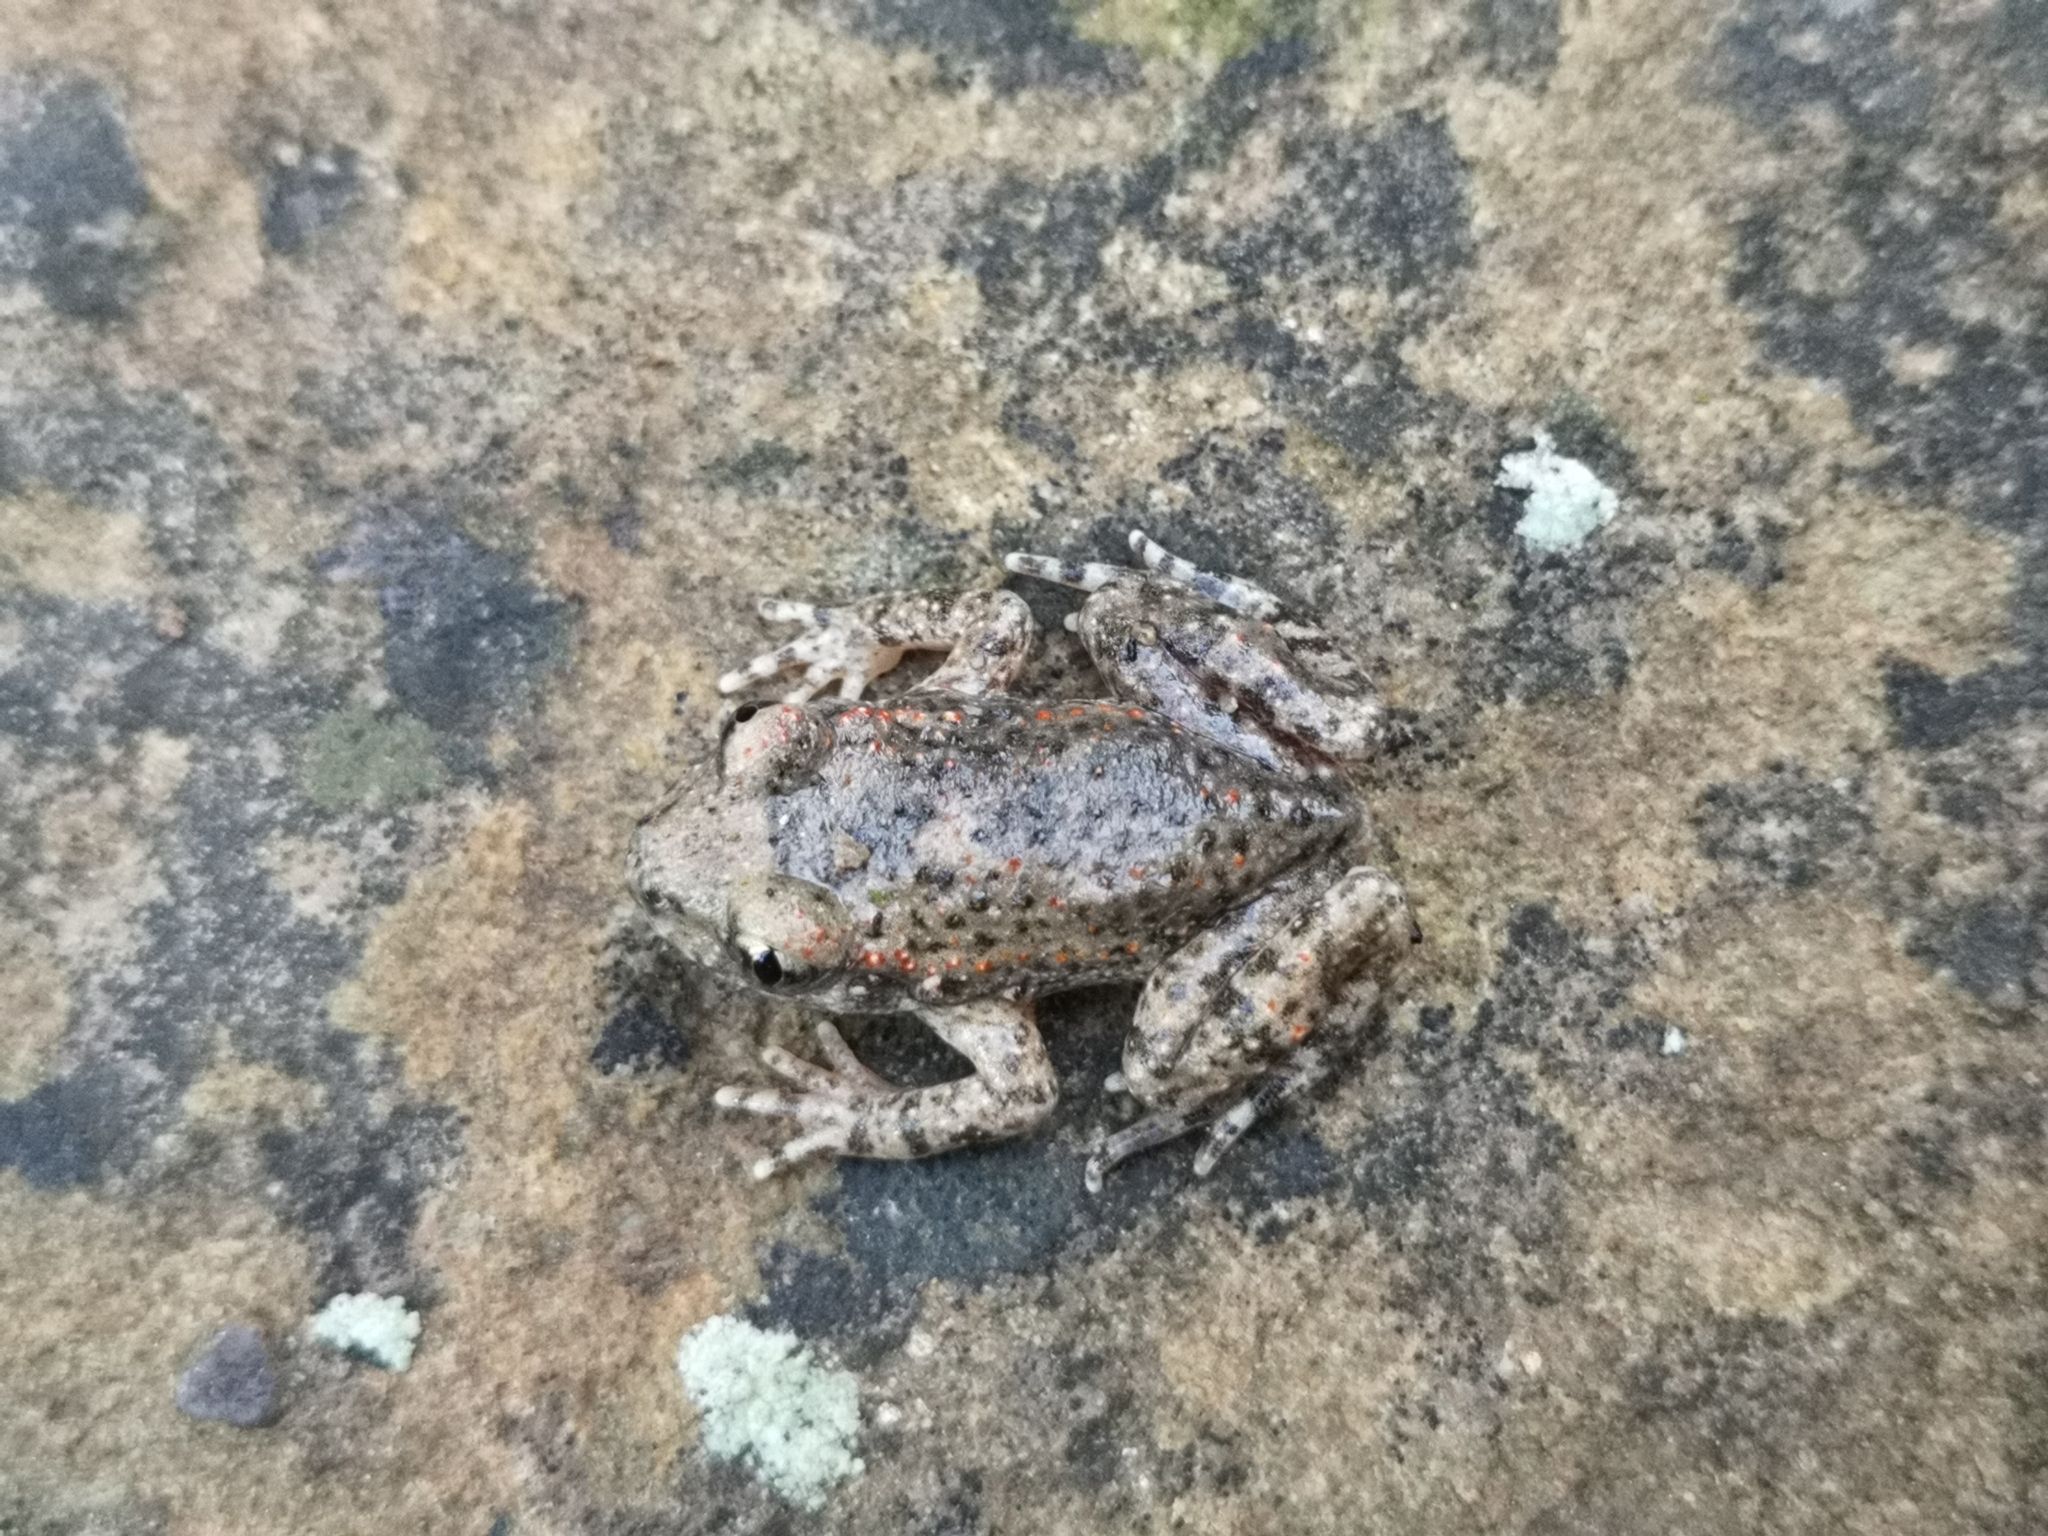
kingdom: Animalia
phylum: Chordata
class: Amphibia
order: Anura
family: Alytidae
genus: Alytes
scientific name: Alytes obstetricans
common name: Midwife toad
